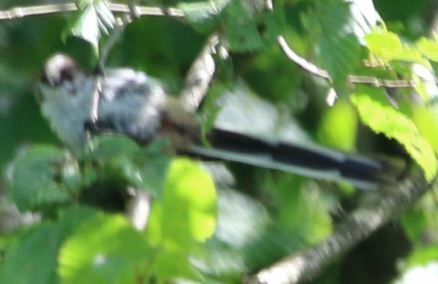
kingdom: Animalia
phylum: Chordata
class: Aves
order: Passeriformes
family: Aegithalidae
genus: Aegithalos
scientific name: Aegithalos caudatus
